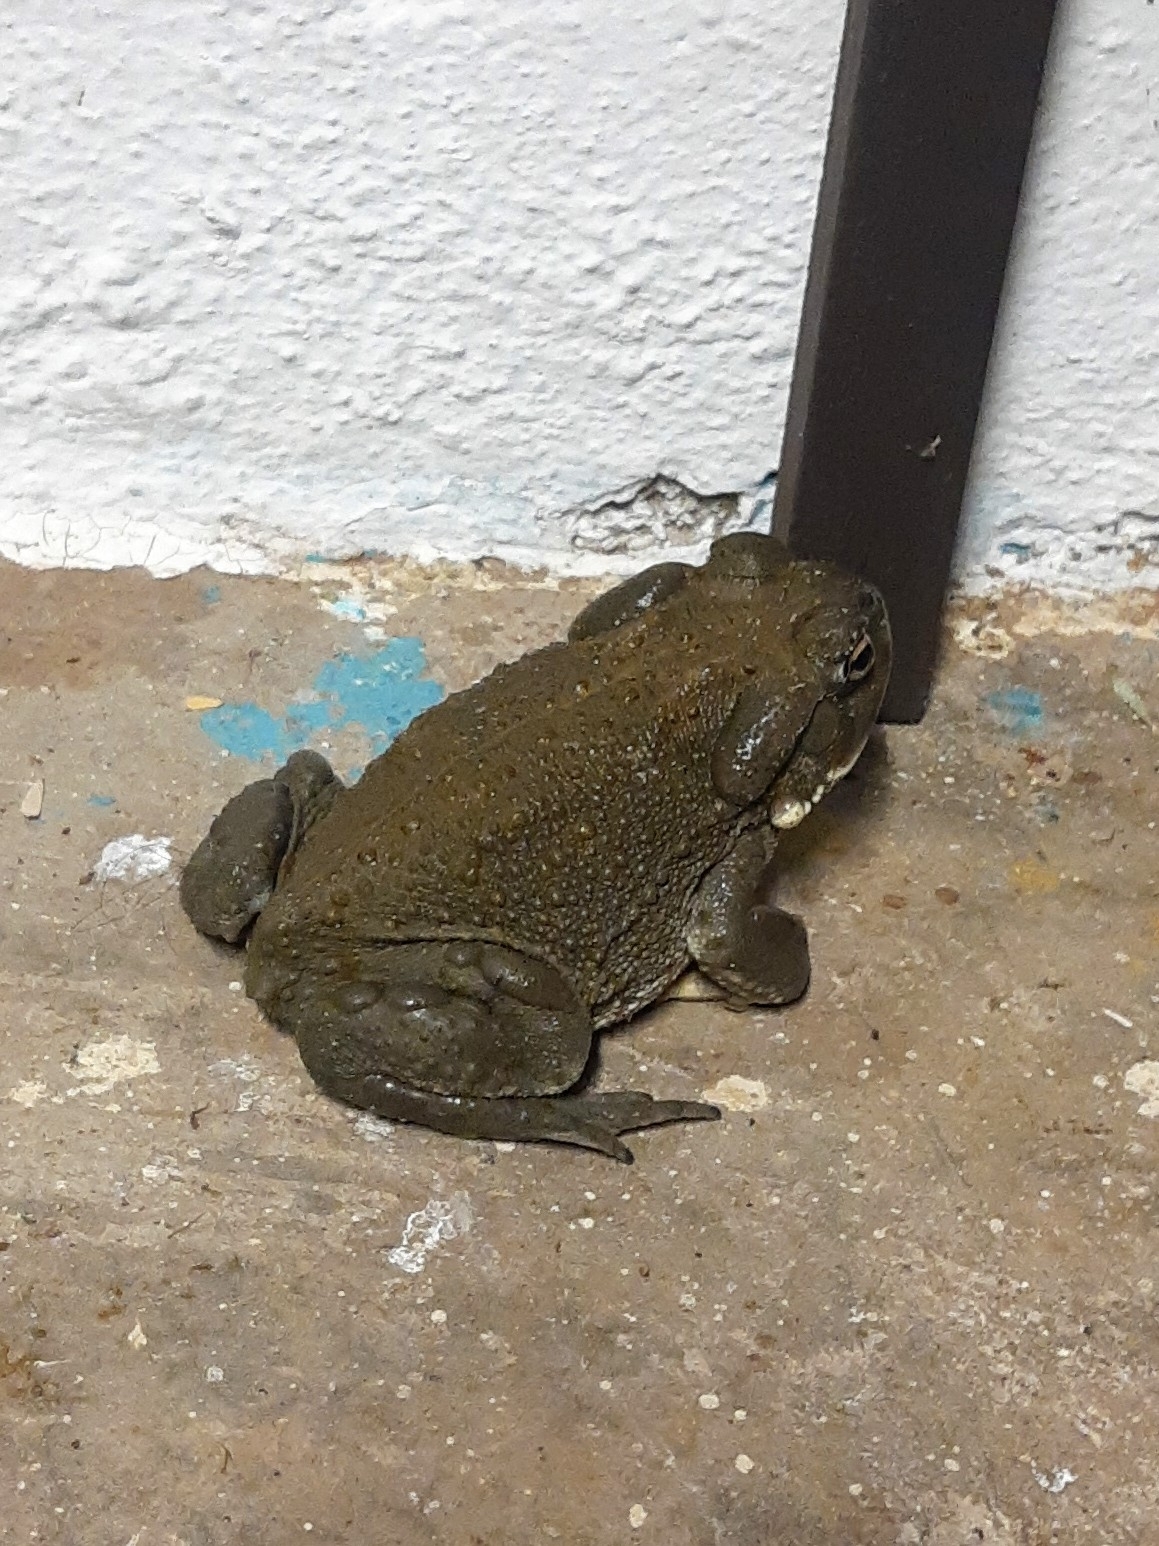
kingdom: Animalia
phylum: Chordata
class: Amphibia
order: Anura
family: Bufonidae
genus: Incilius
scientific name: Incilius alvarius
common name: Sonoran desert toad
